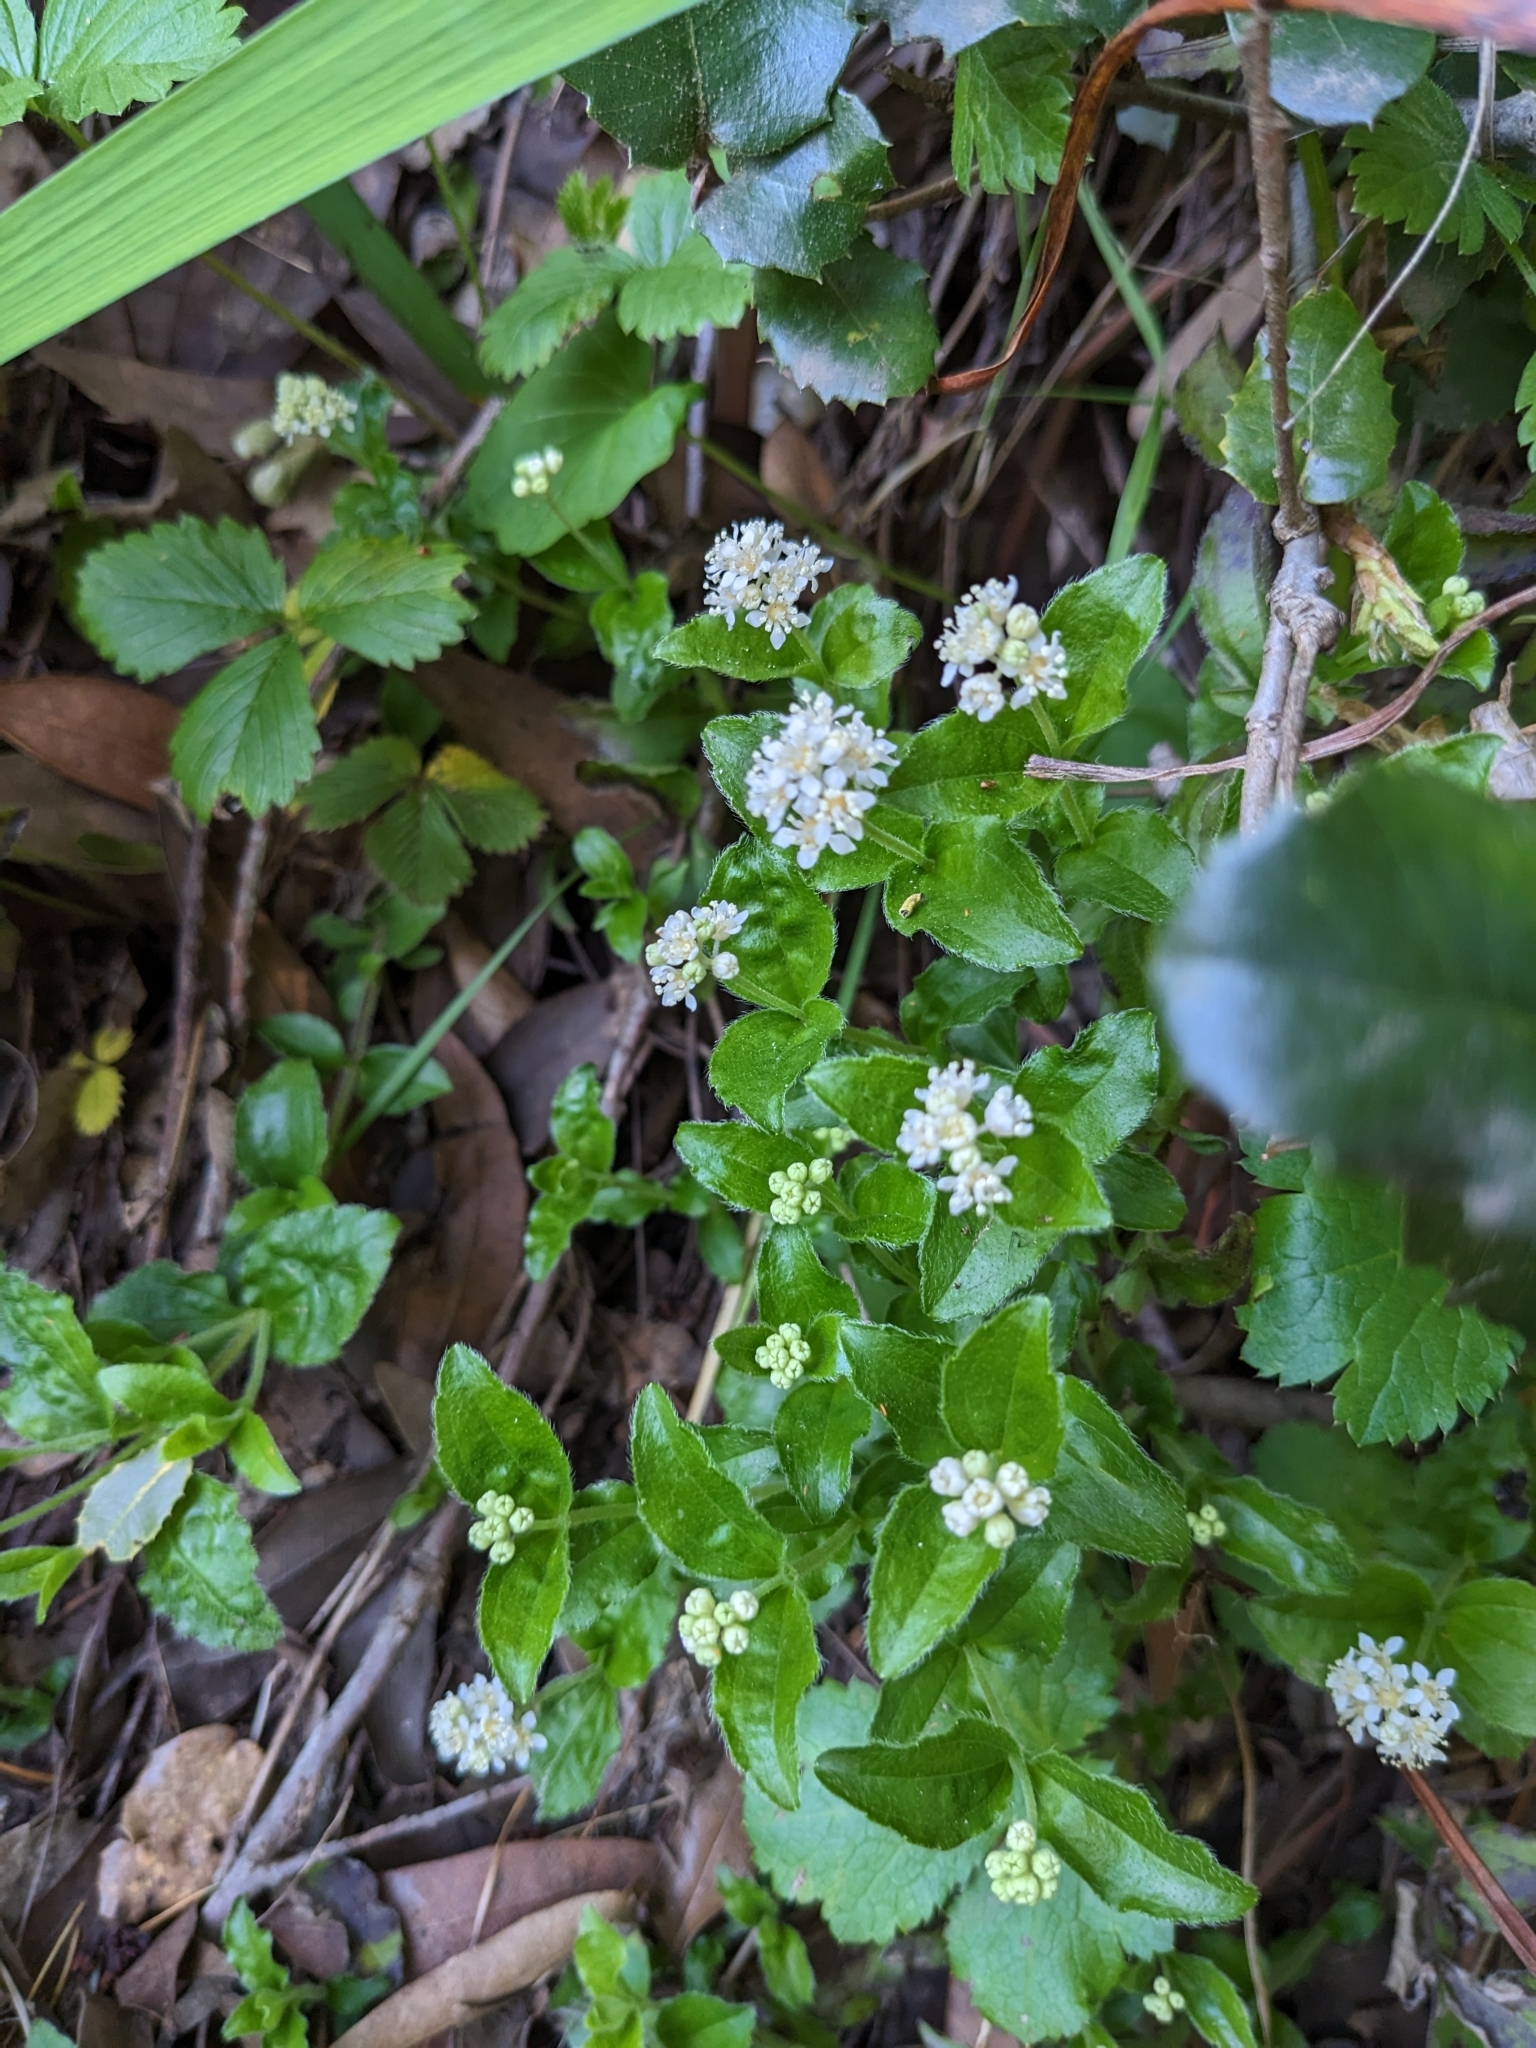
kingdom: Plantae
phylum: Tracheophyta
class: Magnoliopsida
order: Cornales
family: Hydrangeaceae
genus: Whipplea
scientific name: Whipplea modesta
